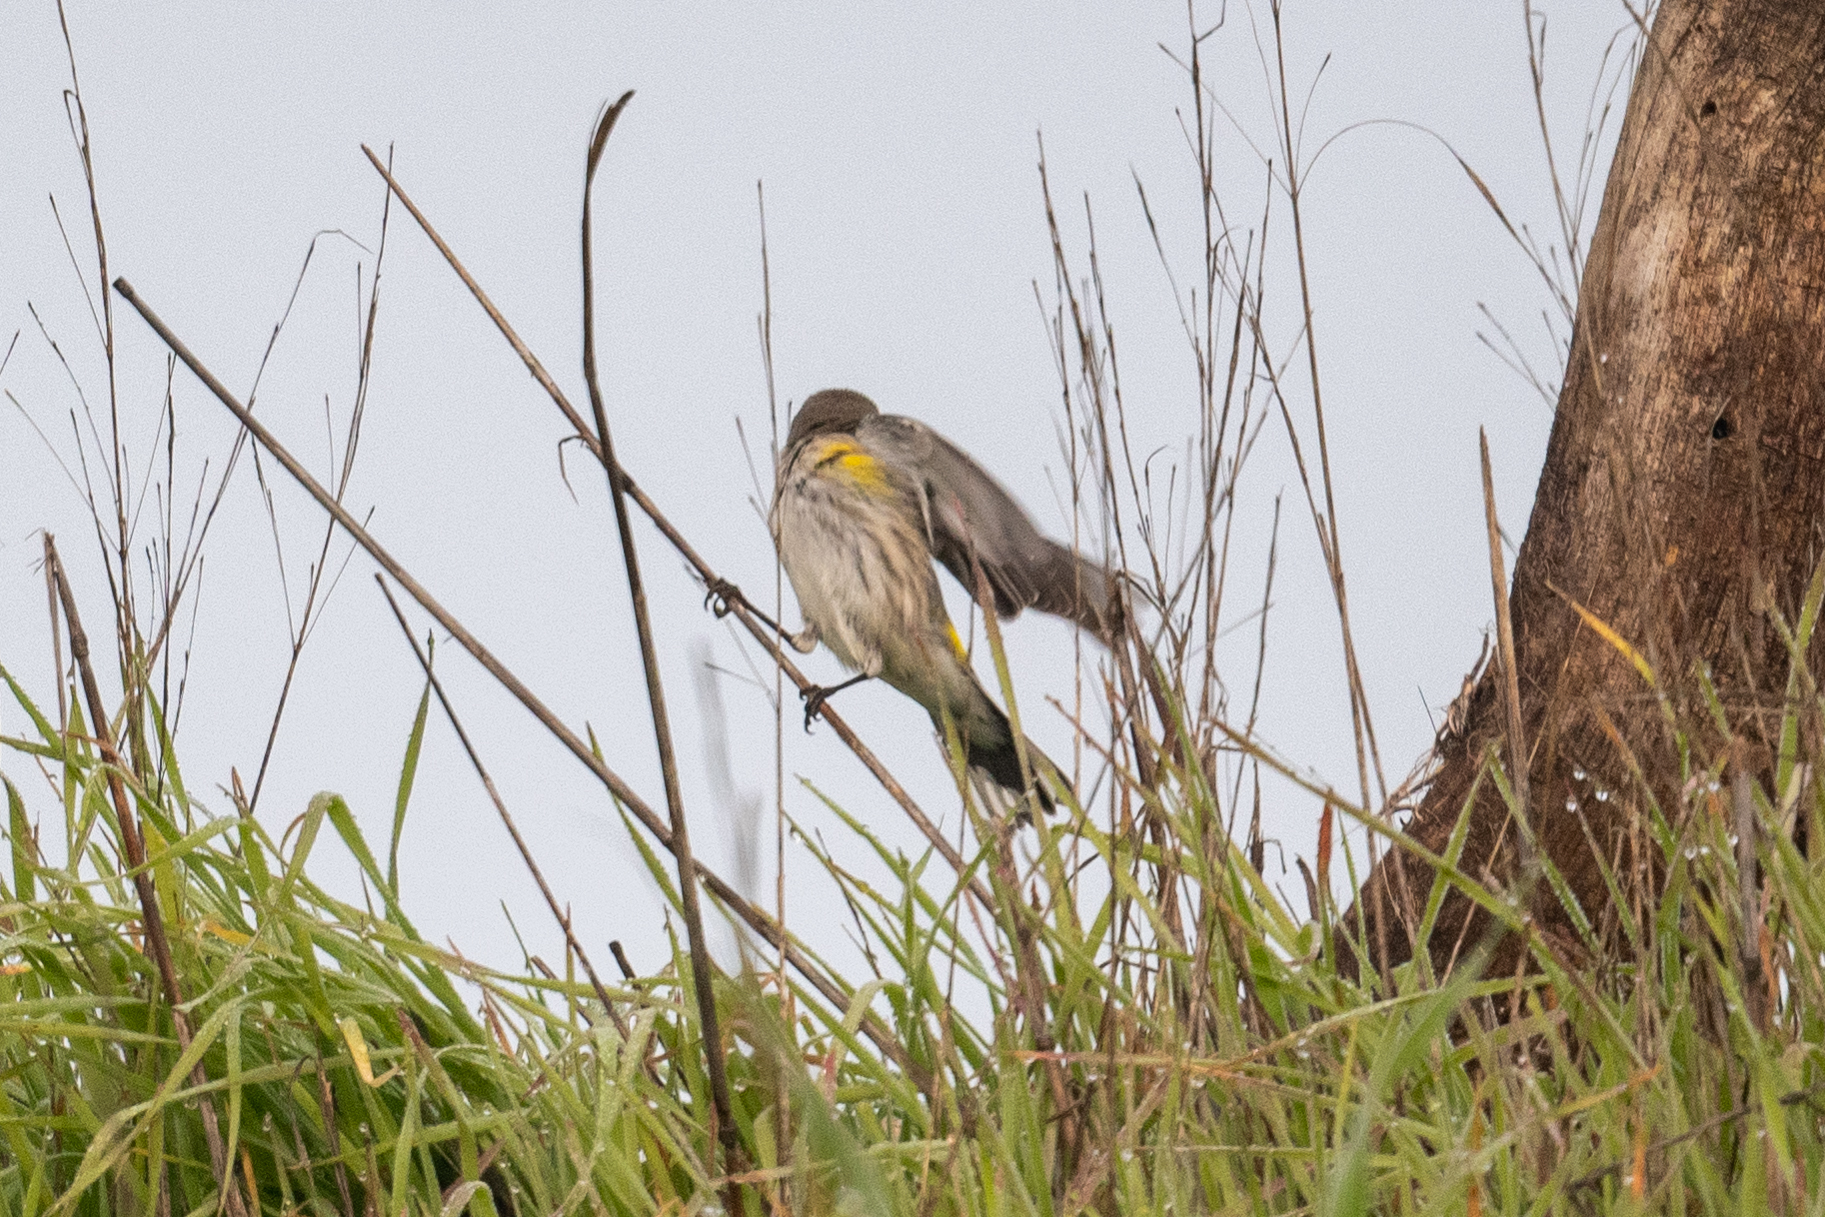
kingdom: Animalia
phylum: Chordata
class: Aves
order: Passeriformes
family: Parulidae
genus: Setophaga
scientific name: Setophaga coronata
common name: Myrtle warbler
